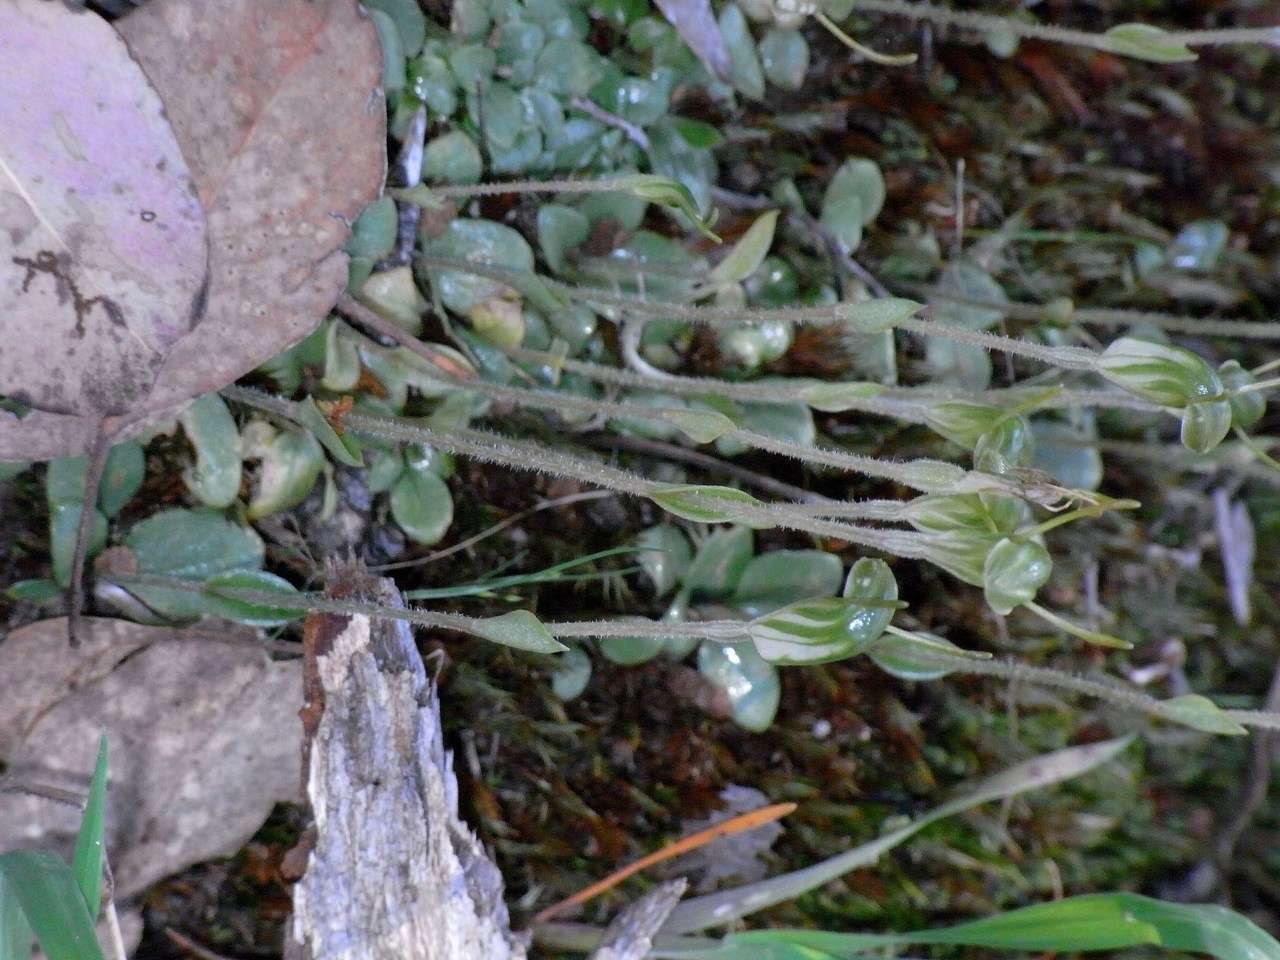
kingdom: Plantae
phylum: Tracheophyta
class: Liliopsida
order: Asparagales
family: Orchidaceae
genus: Pterostylis
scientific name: Pterostylis nana
